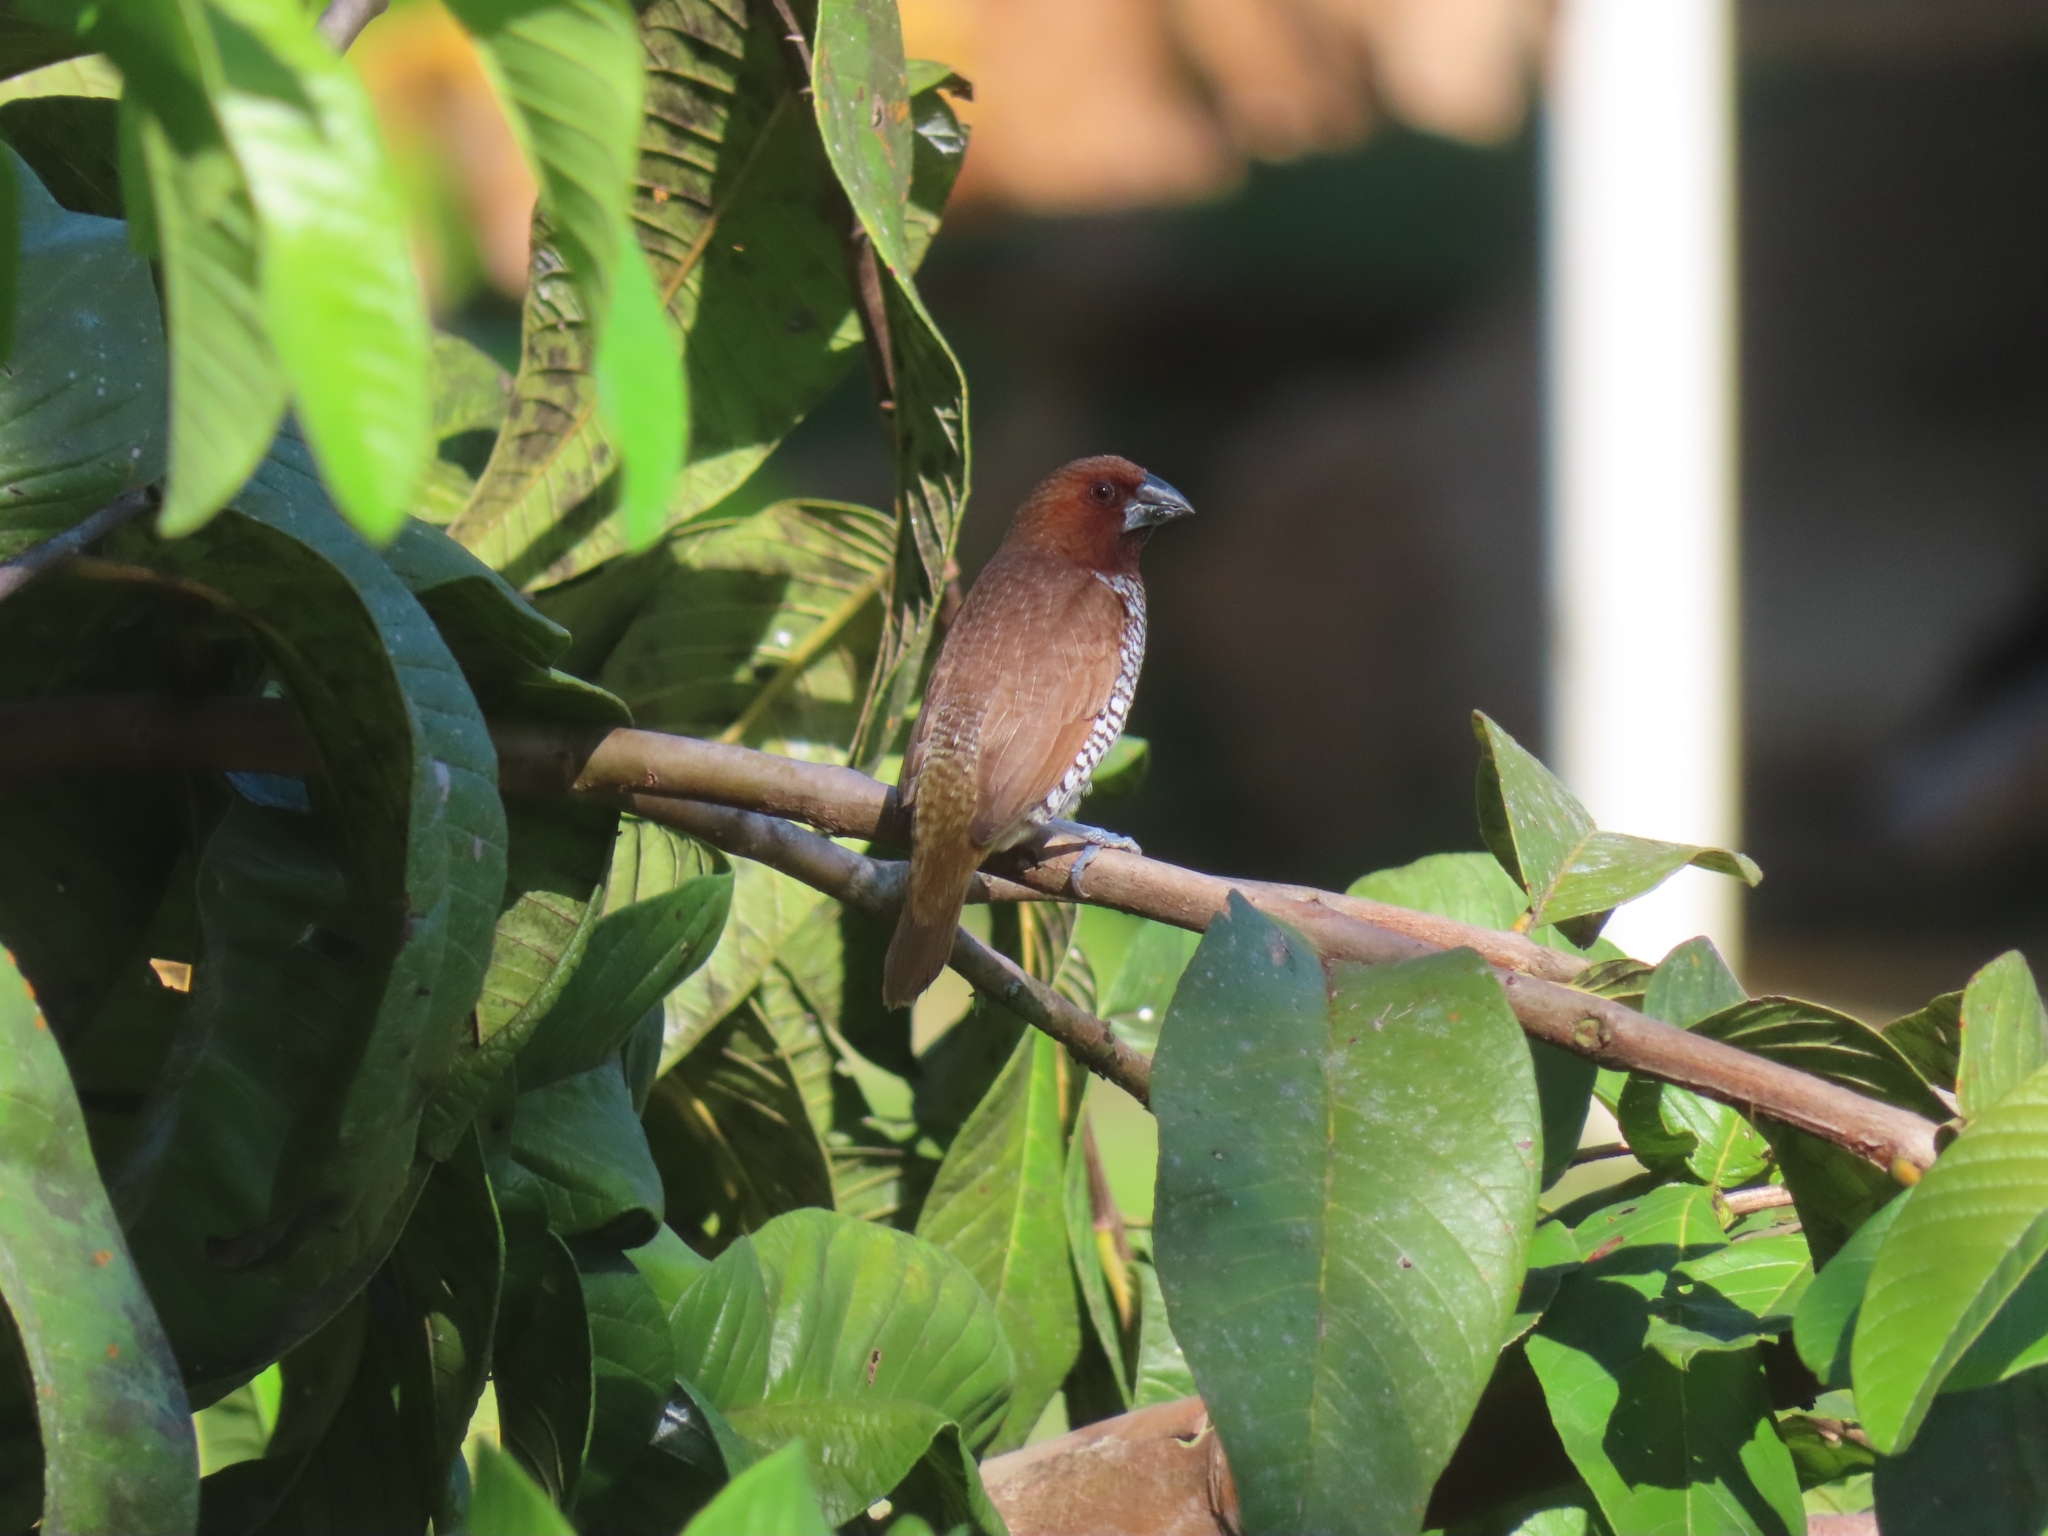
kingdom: Animalia
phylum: Chordata
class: Aves
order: Passeriformes
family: Estrildidae
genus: Lonchura
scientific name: Lonchura punctulata
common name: Scaly-breasted munia
